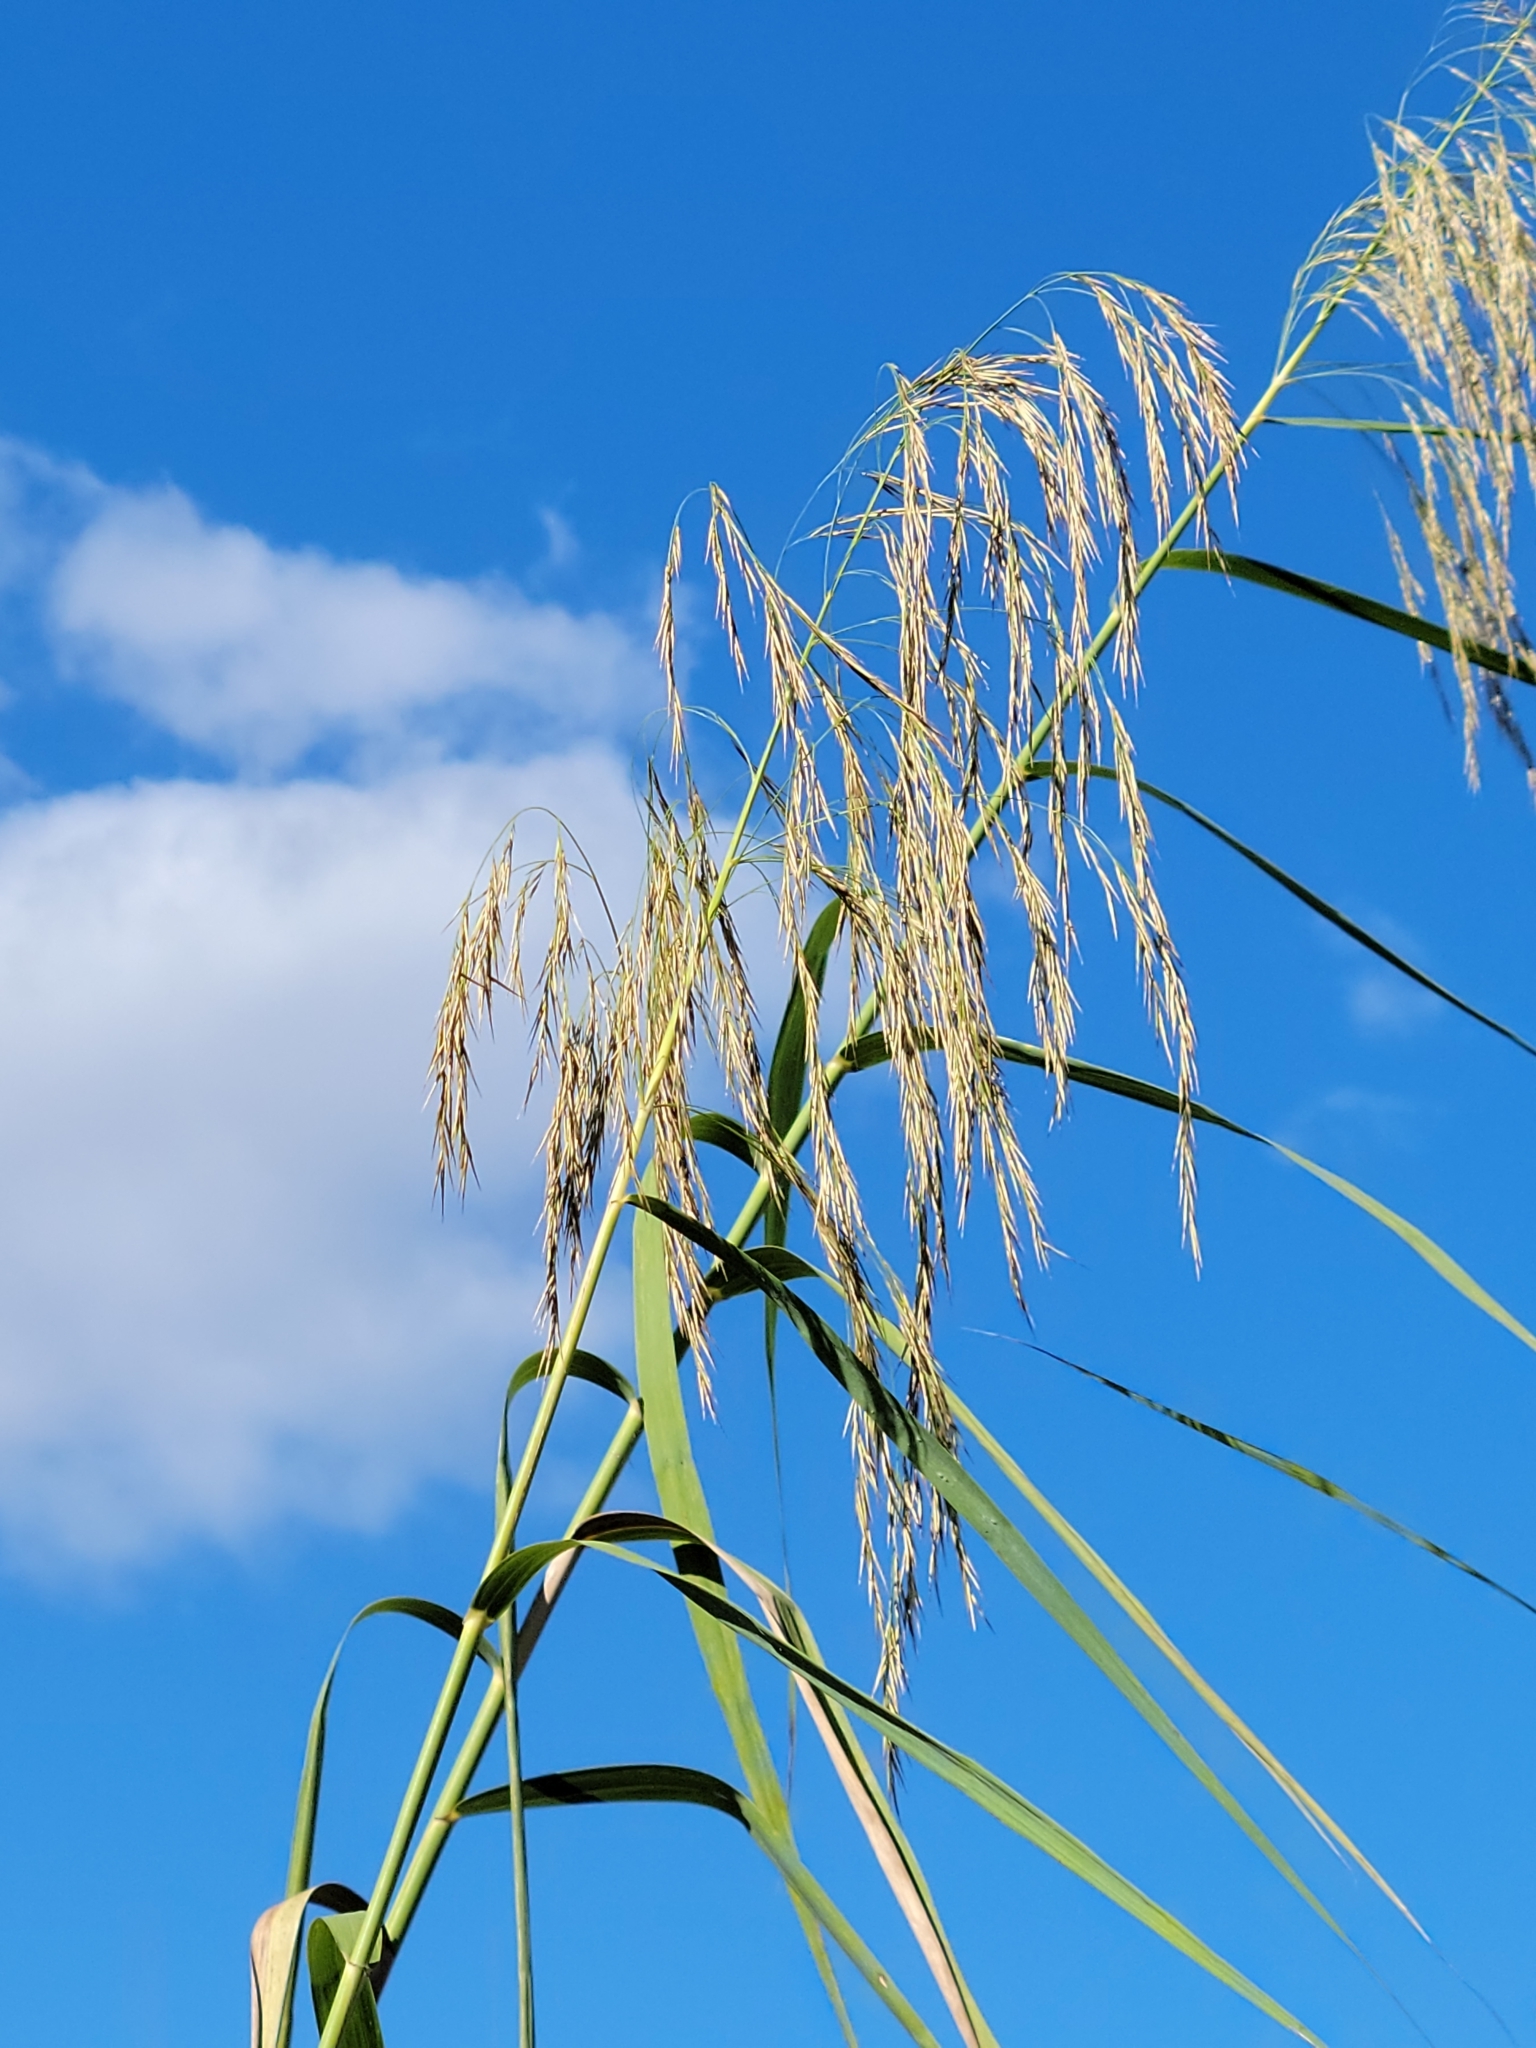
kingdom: Plantae
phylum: Tracheophyta
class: Liliopsida
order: Poales
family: Poaceae
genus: Phragmites
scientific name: Phragmites australis
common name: Common reed
